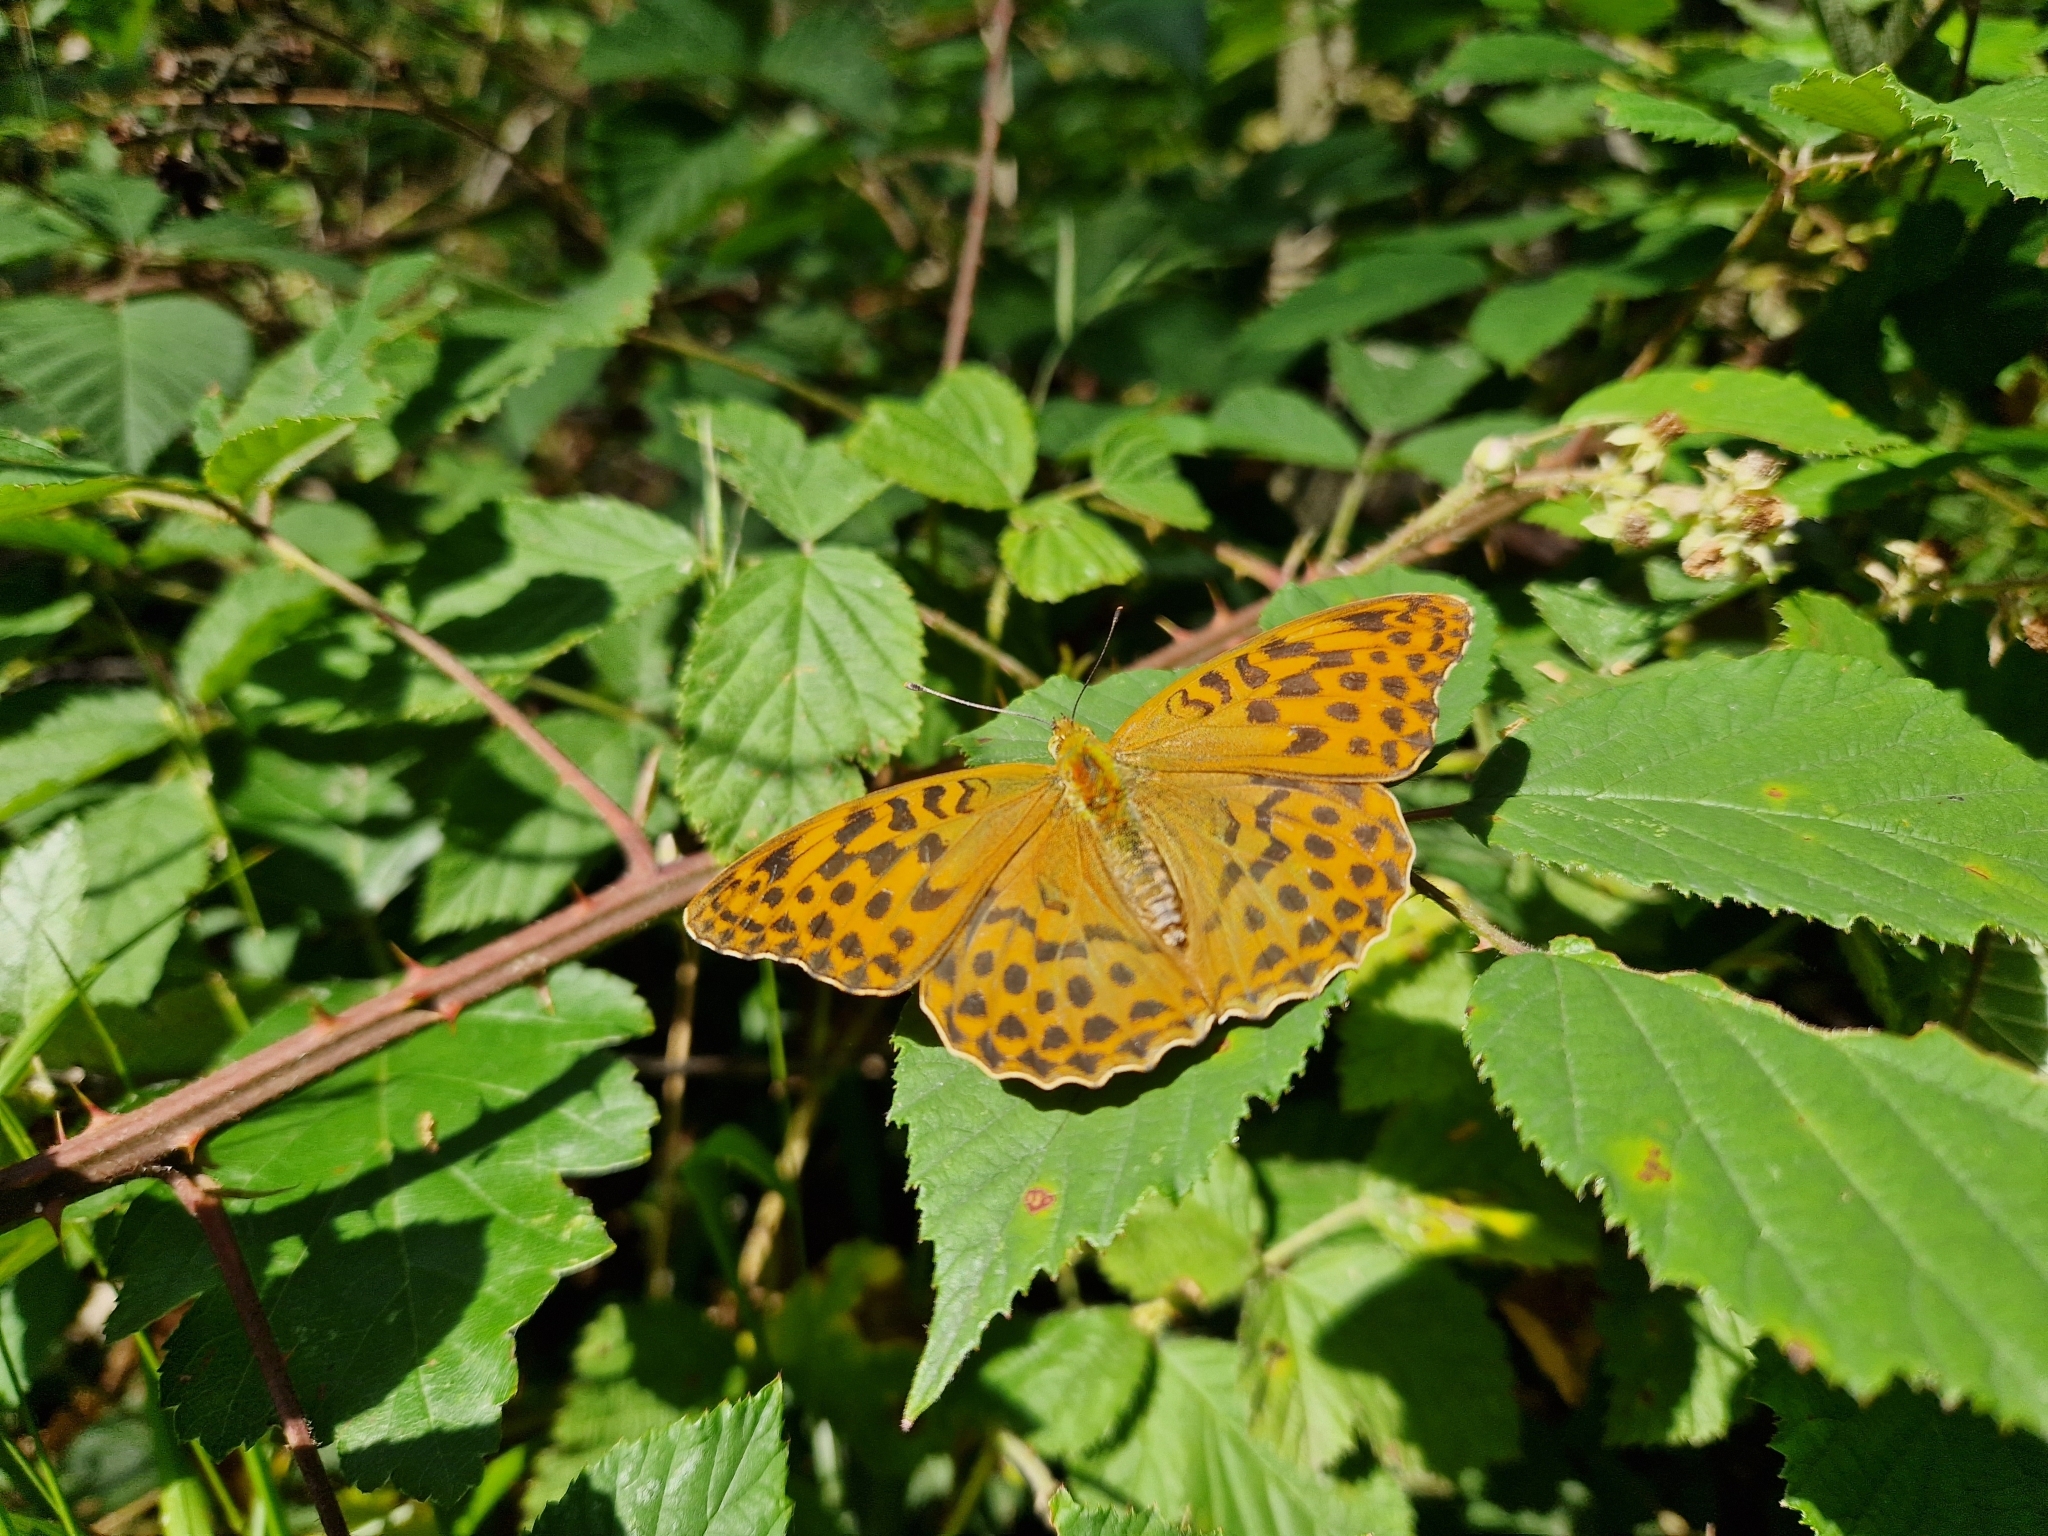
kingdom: Animalia
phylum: Arthropoda
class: Insecta
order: Lepidoptera
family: Nymphalidae
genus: Argynnis
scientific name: Argynnis paphia
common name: Silver-washed fritillary
